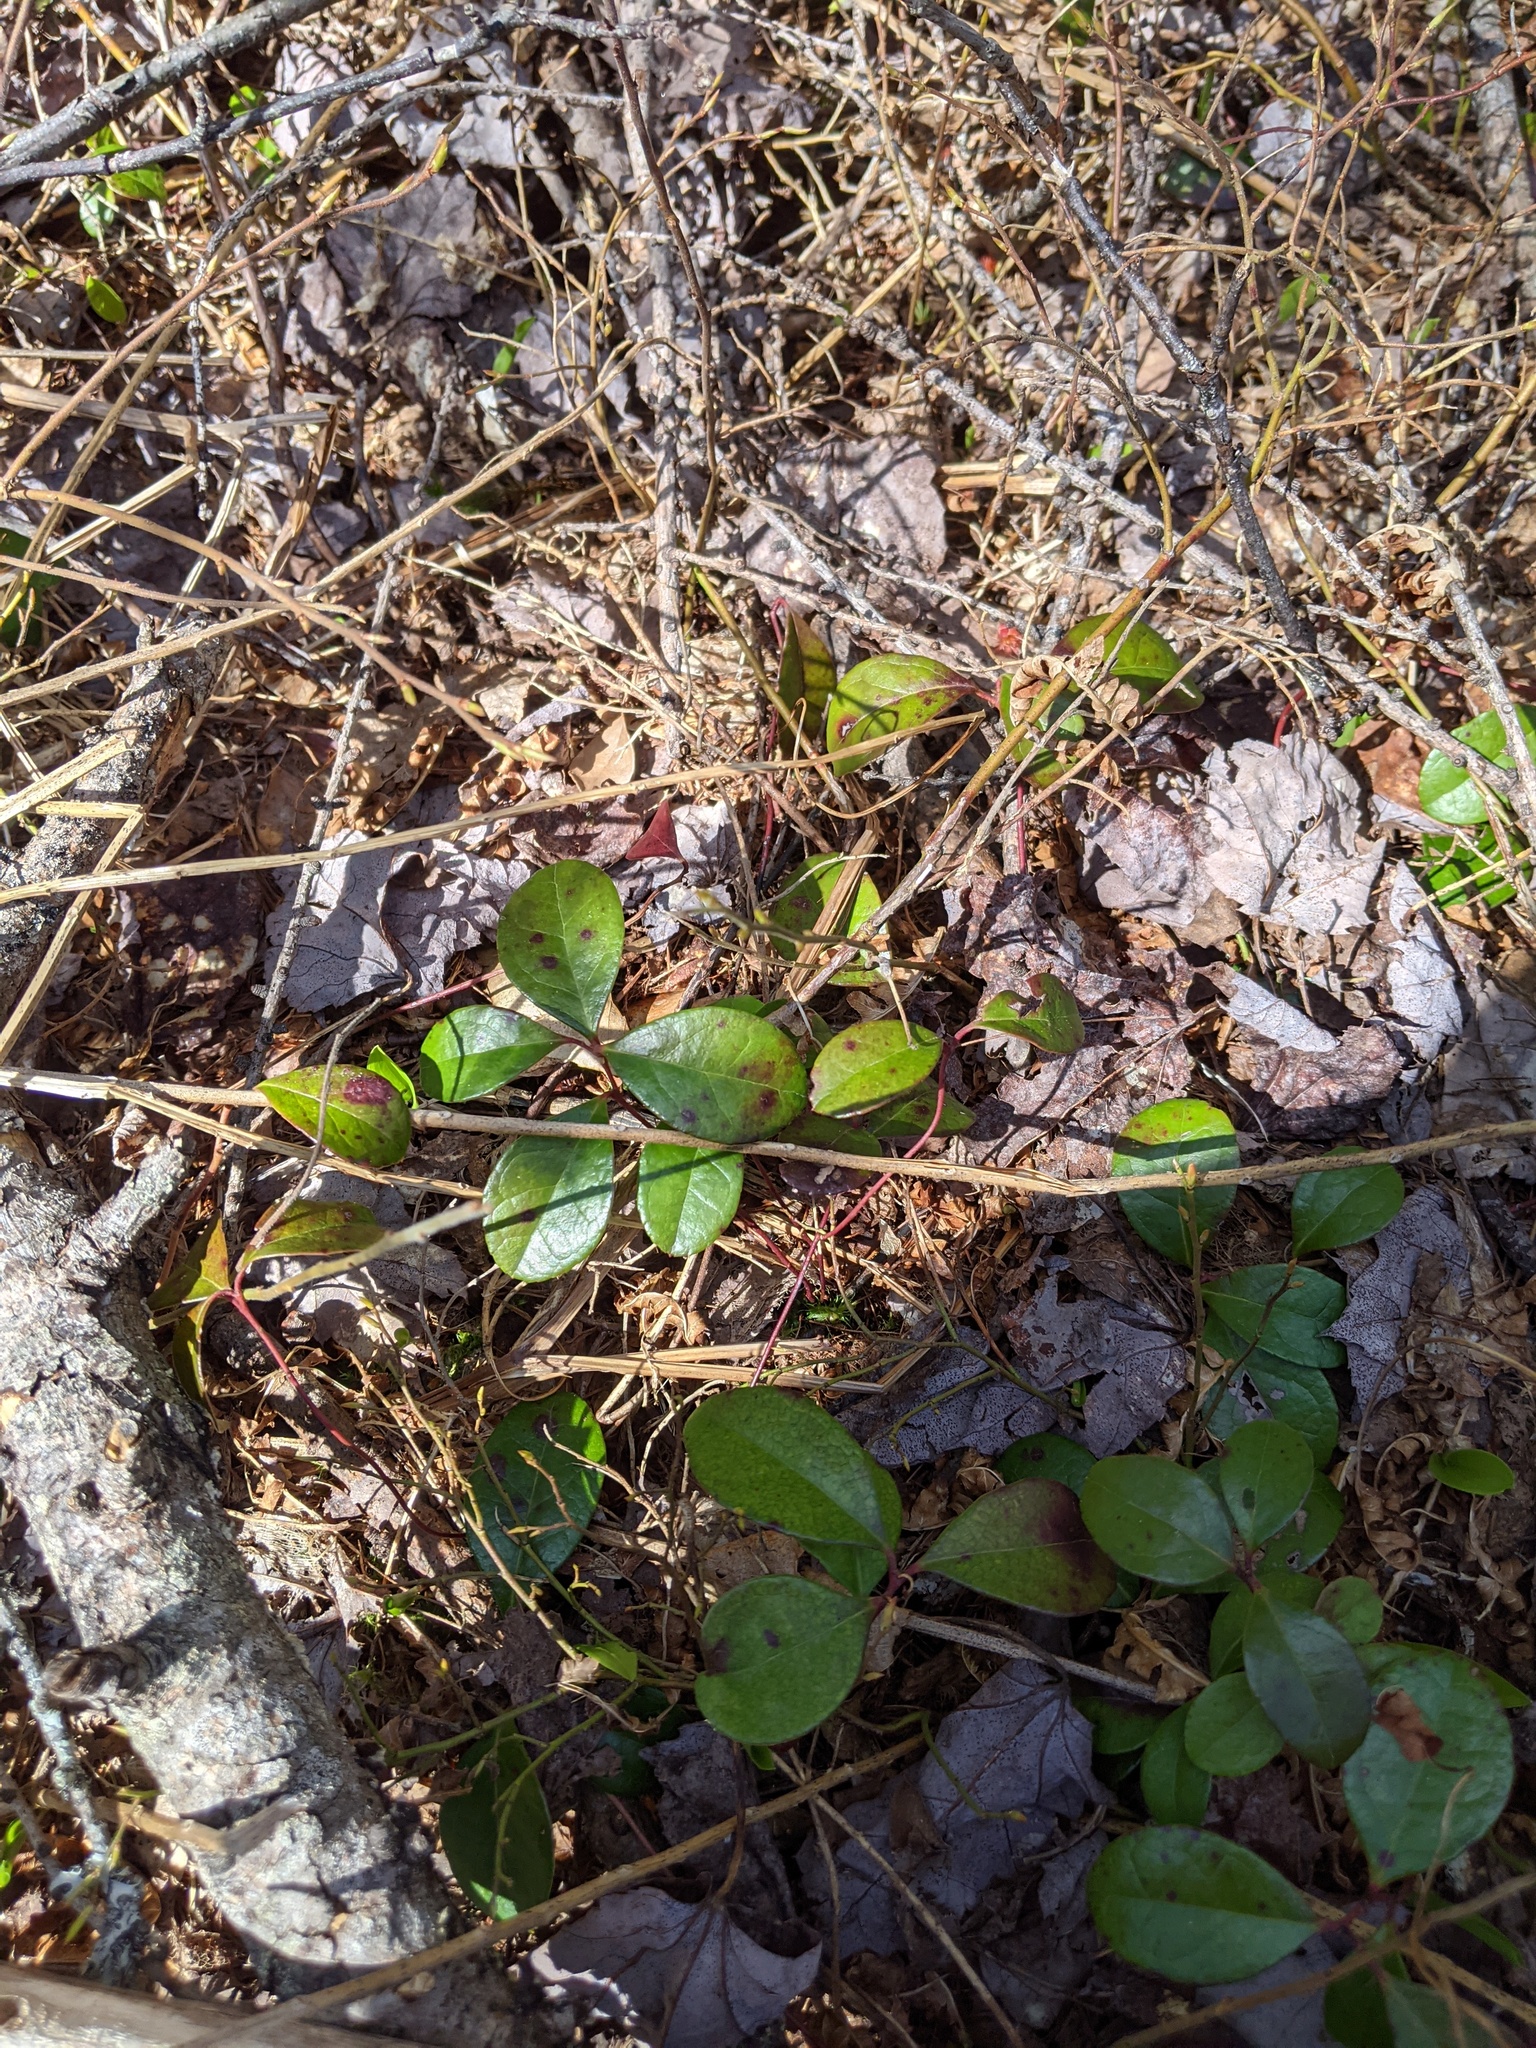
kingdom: Plantae
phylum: Tracheophyta
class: Magnoliopsida
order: Ericales
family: Ericaceae
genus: Gaultheria
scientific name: Gaultheria procumbens
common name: Checkerberry
